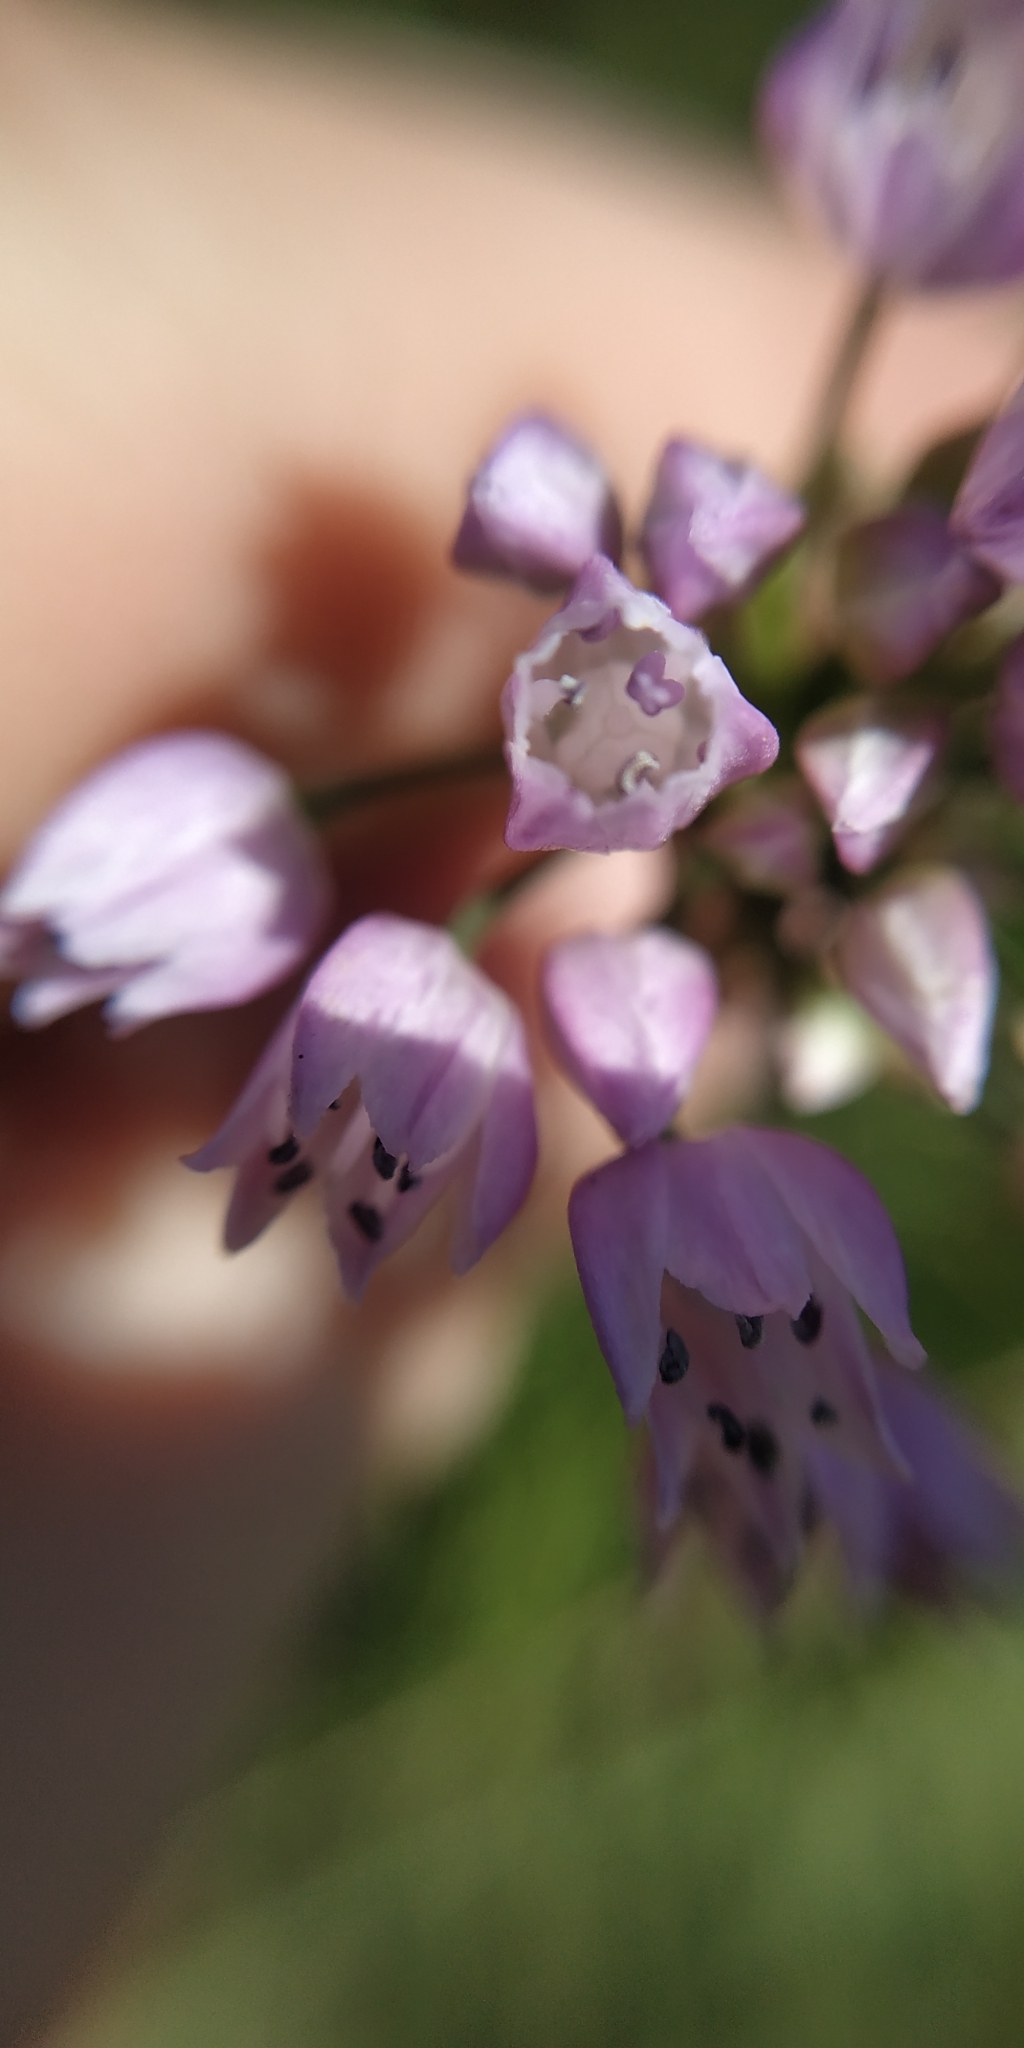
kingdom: Plantae
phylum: Tracheophyta
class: Liliopsida
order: Asparagales
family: Amaryllidaceae
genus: Allium
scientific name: Allium angulosum
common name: Mouse garlic
